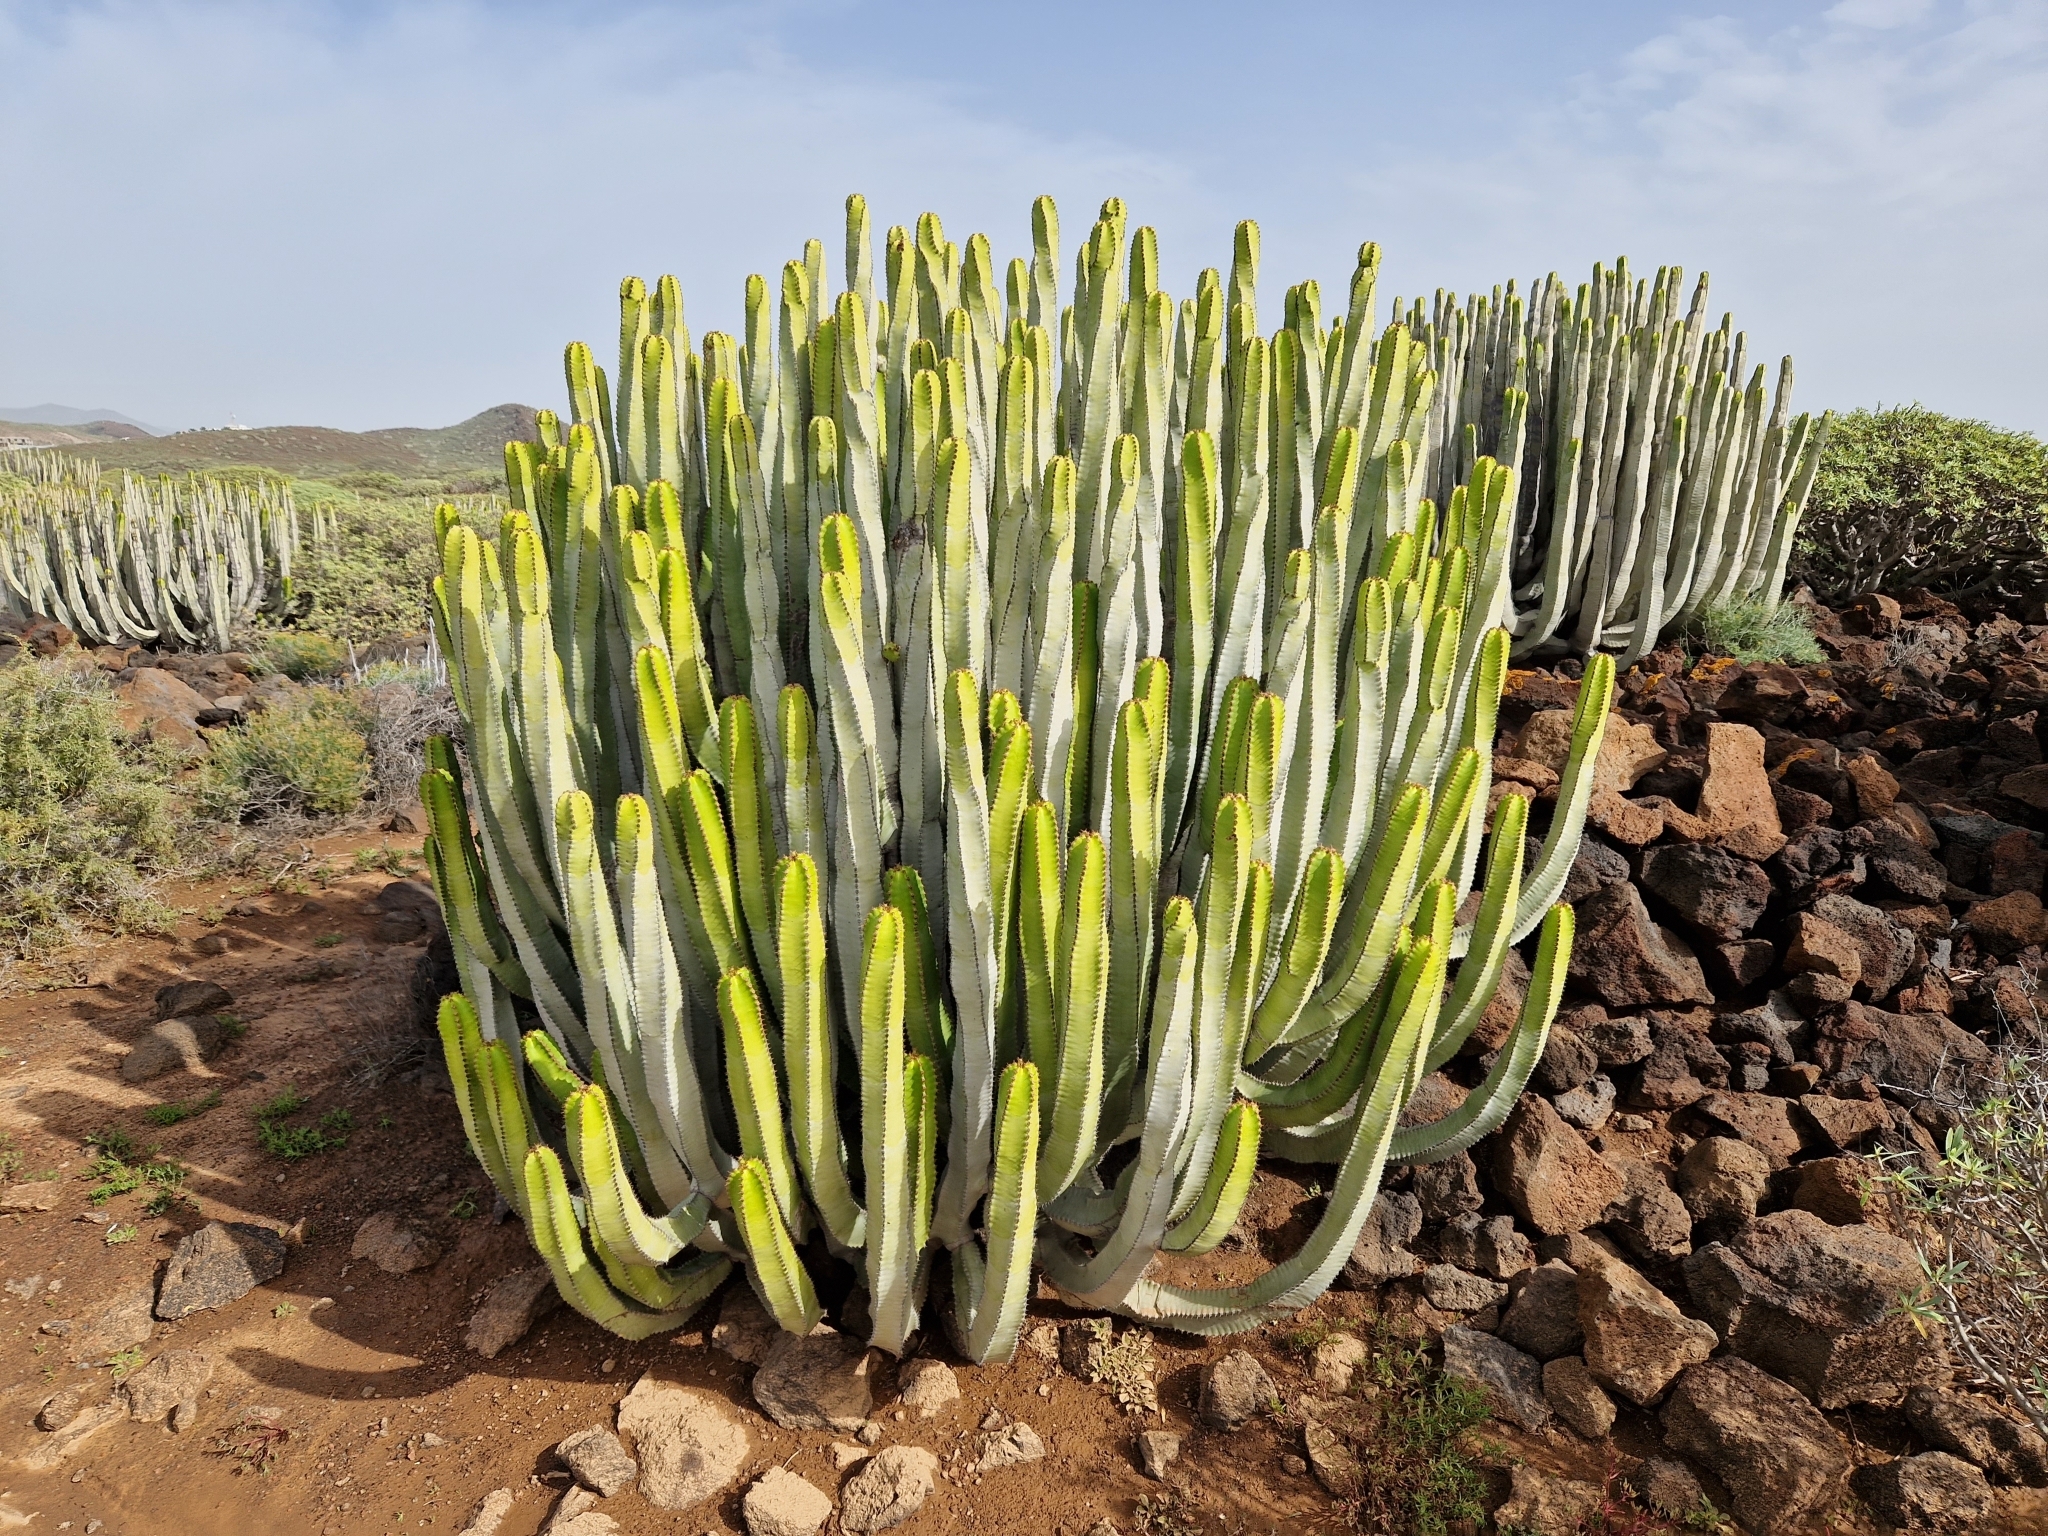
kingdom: Plantae
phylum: Tracheophyta
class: Magnoliopsida
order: Malpighiales
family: Euphorbiaceae
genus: Euphorbia
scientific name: Euphorbia canariensis
